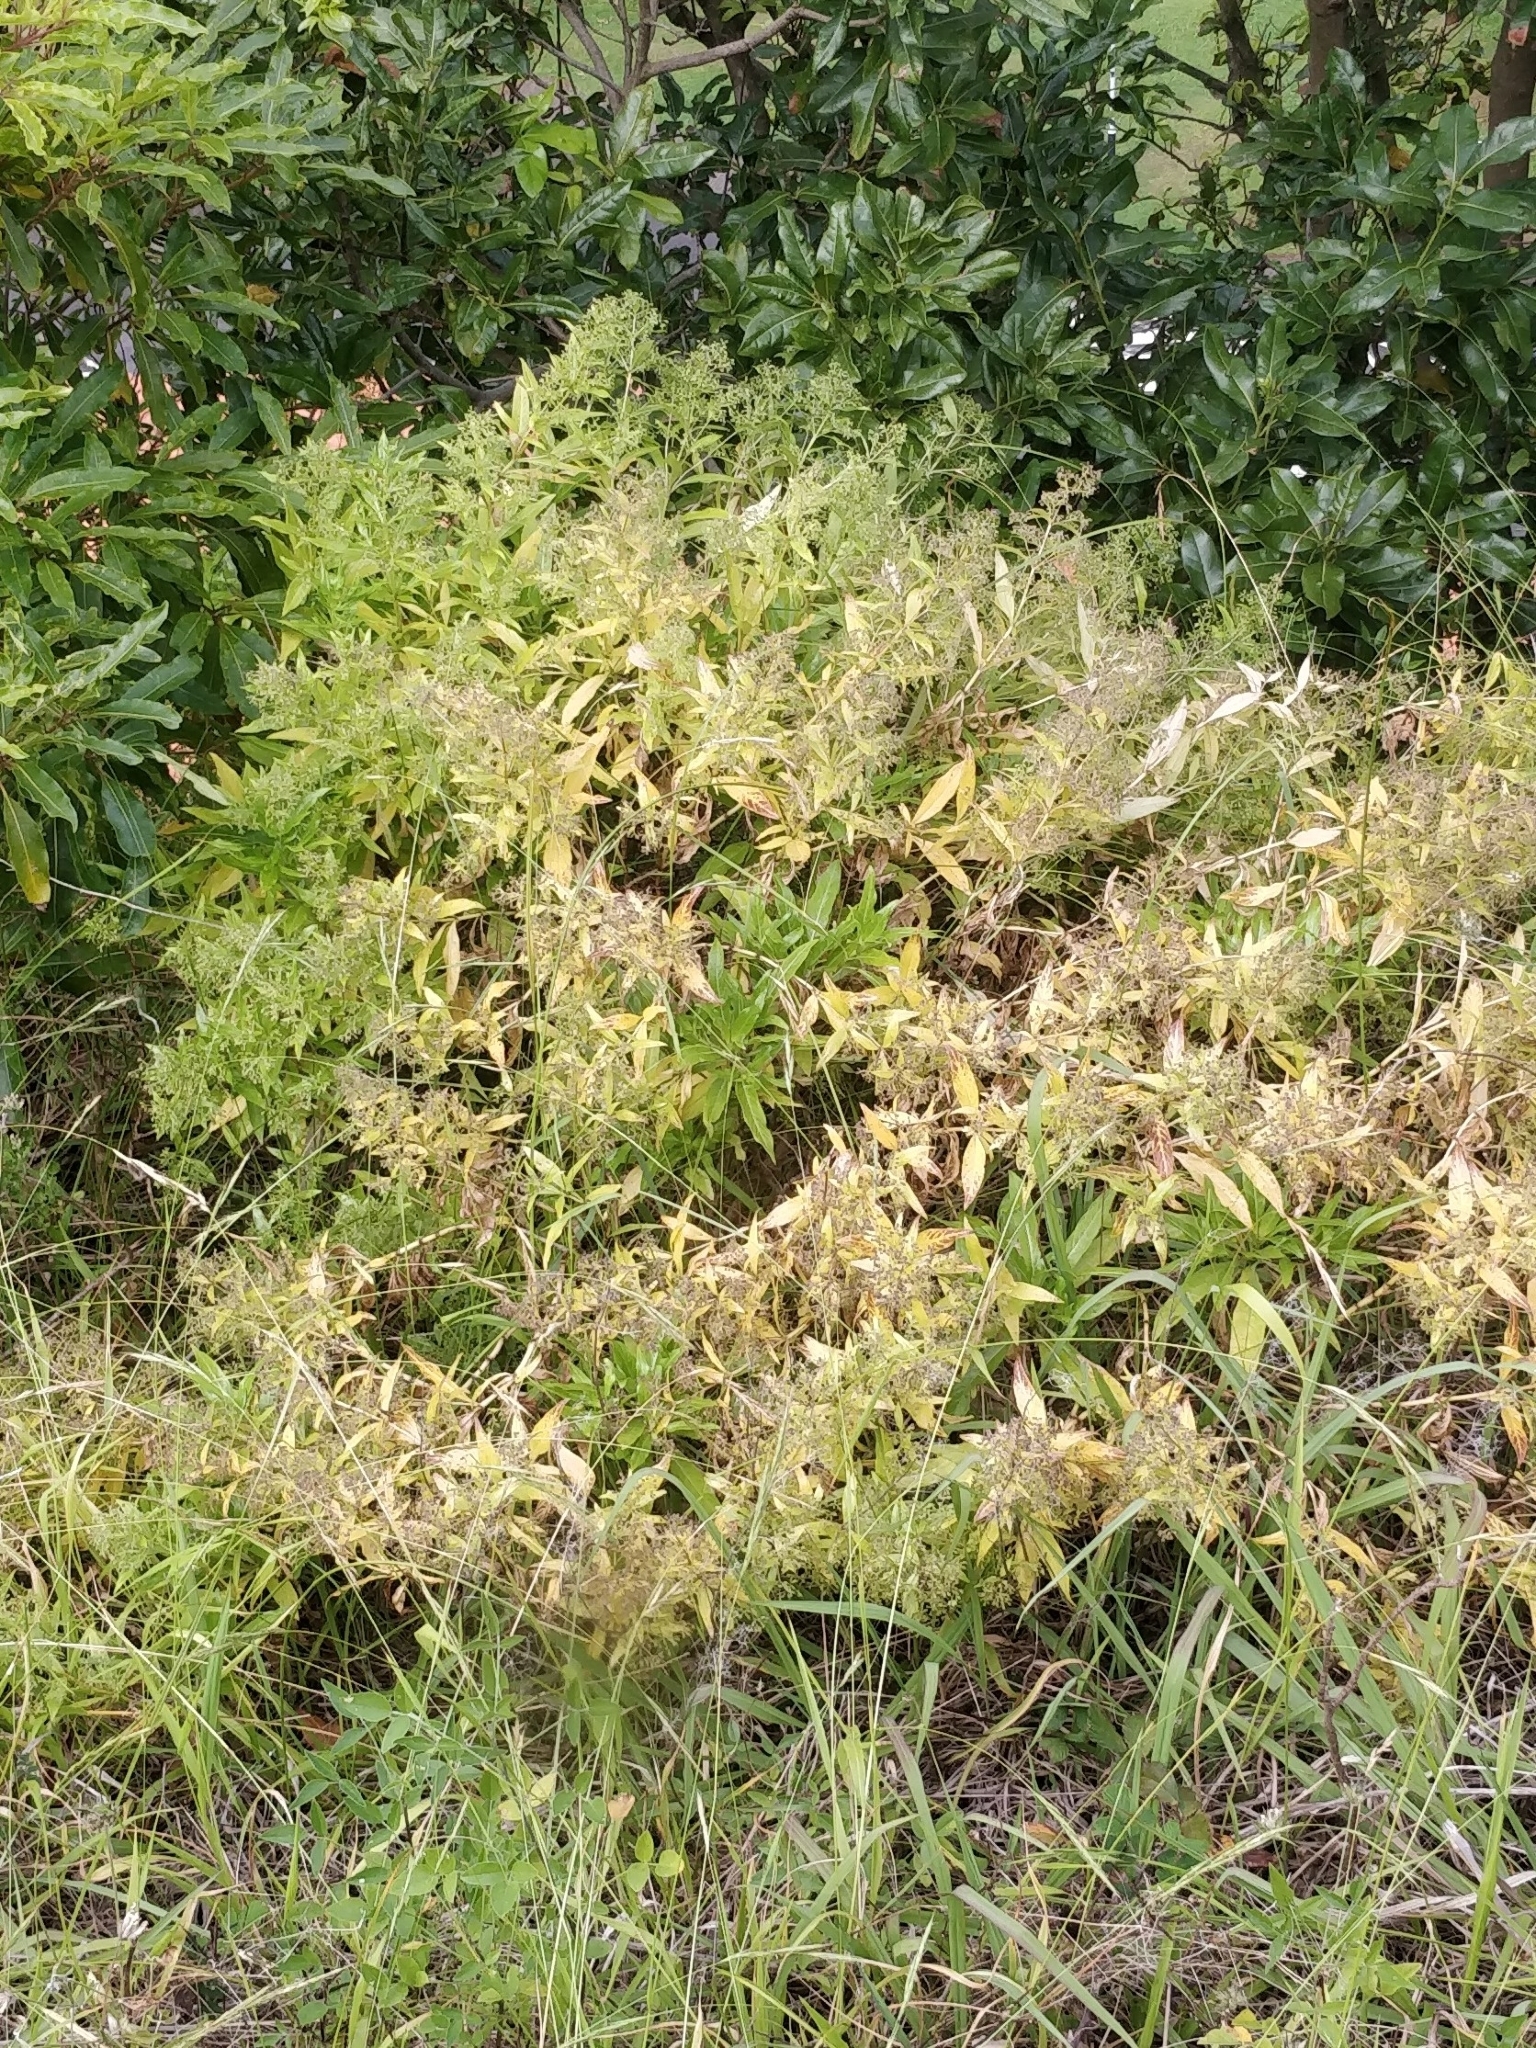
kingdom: Plantae
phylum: Tracheophyta
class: Magnoliopsida
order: Gentianales
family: Rubiaceae
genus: Phyllis
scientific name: Phyllis nobla
